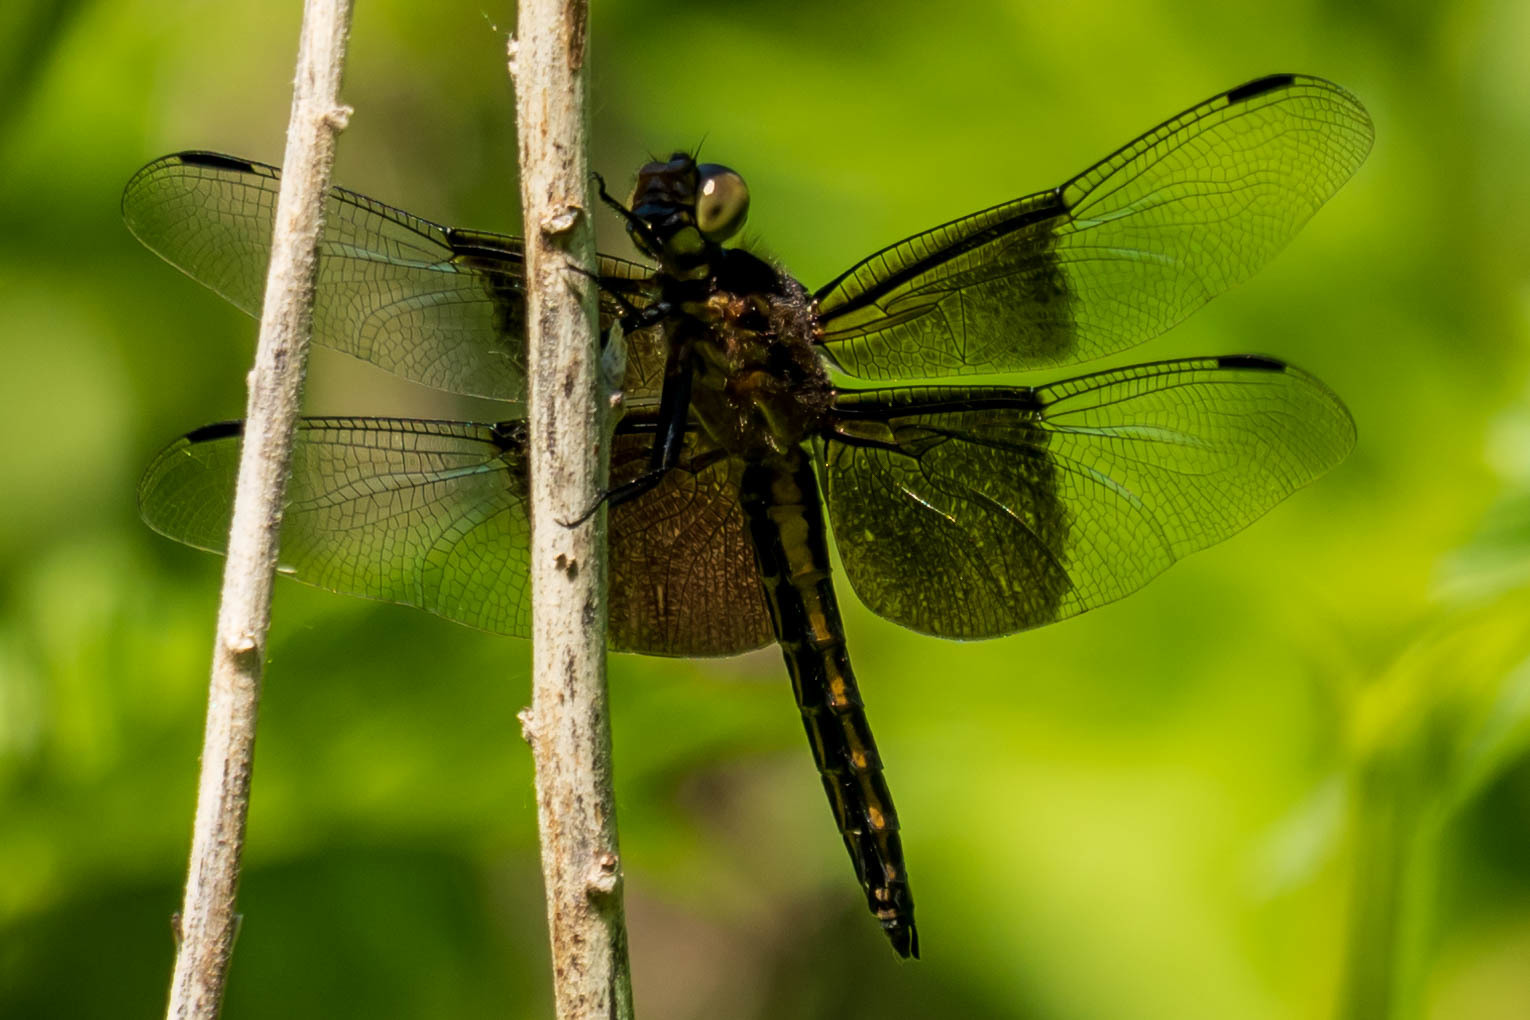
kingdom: Animalia
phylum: Arthropoda
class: Insecta
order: Odonata
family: Libellulidae
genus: Libellula
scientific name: Libellula luctuosa
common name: Widow skimmer
